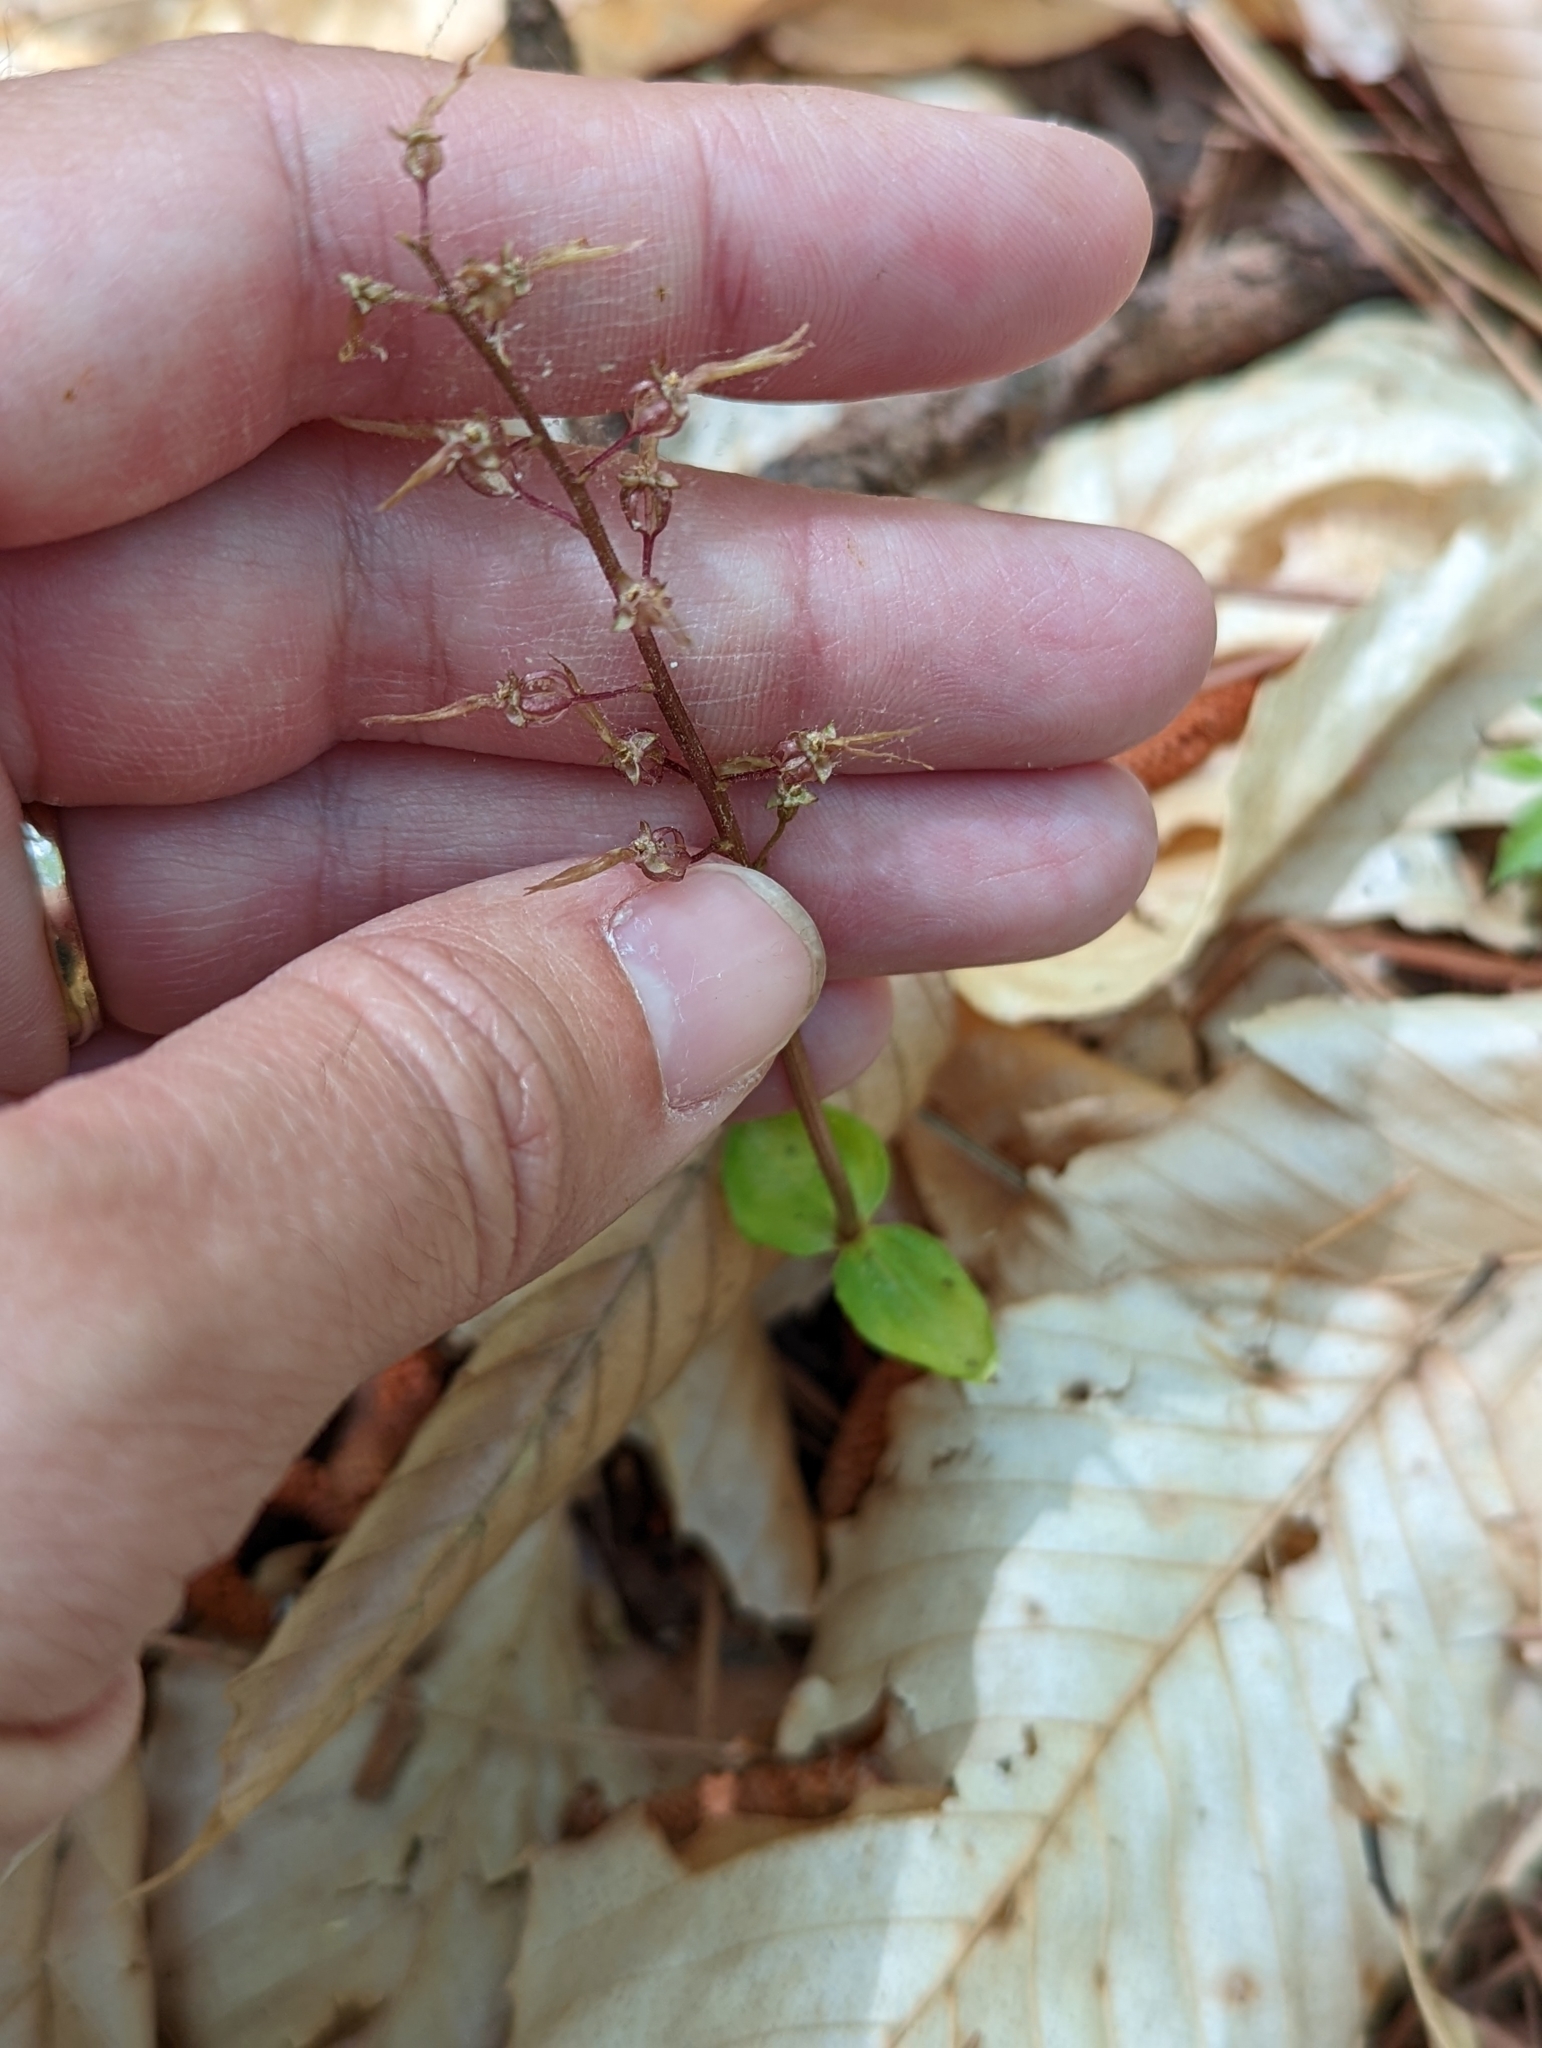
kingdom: Plantae
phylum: Tracheophyta
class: Liliopsida
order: Asparagales
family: Orchidaceae
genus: Neottia
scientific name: Neottia bifolia
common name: Southern twayblade
